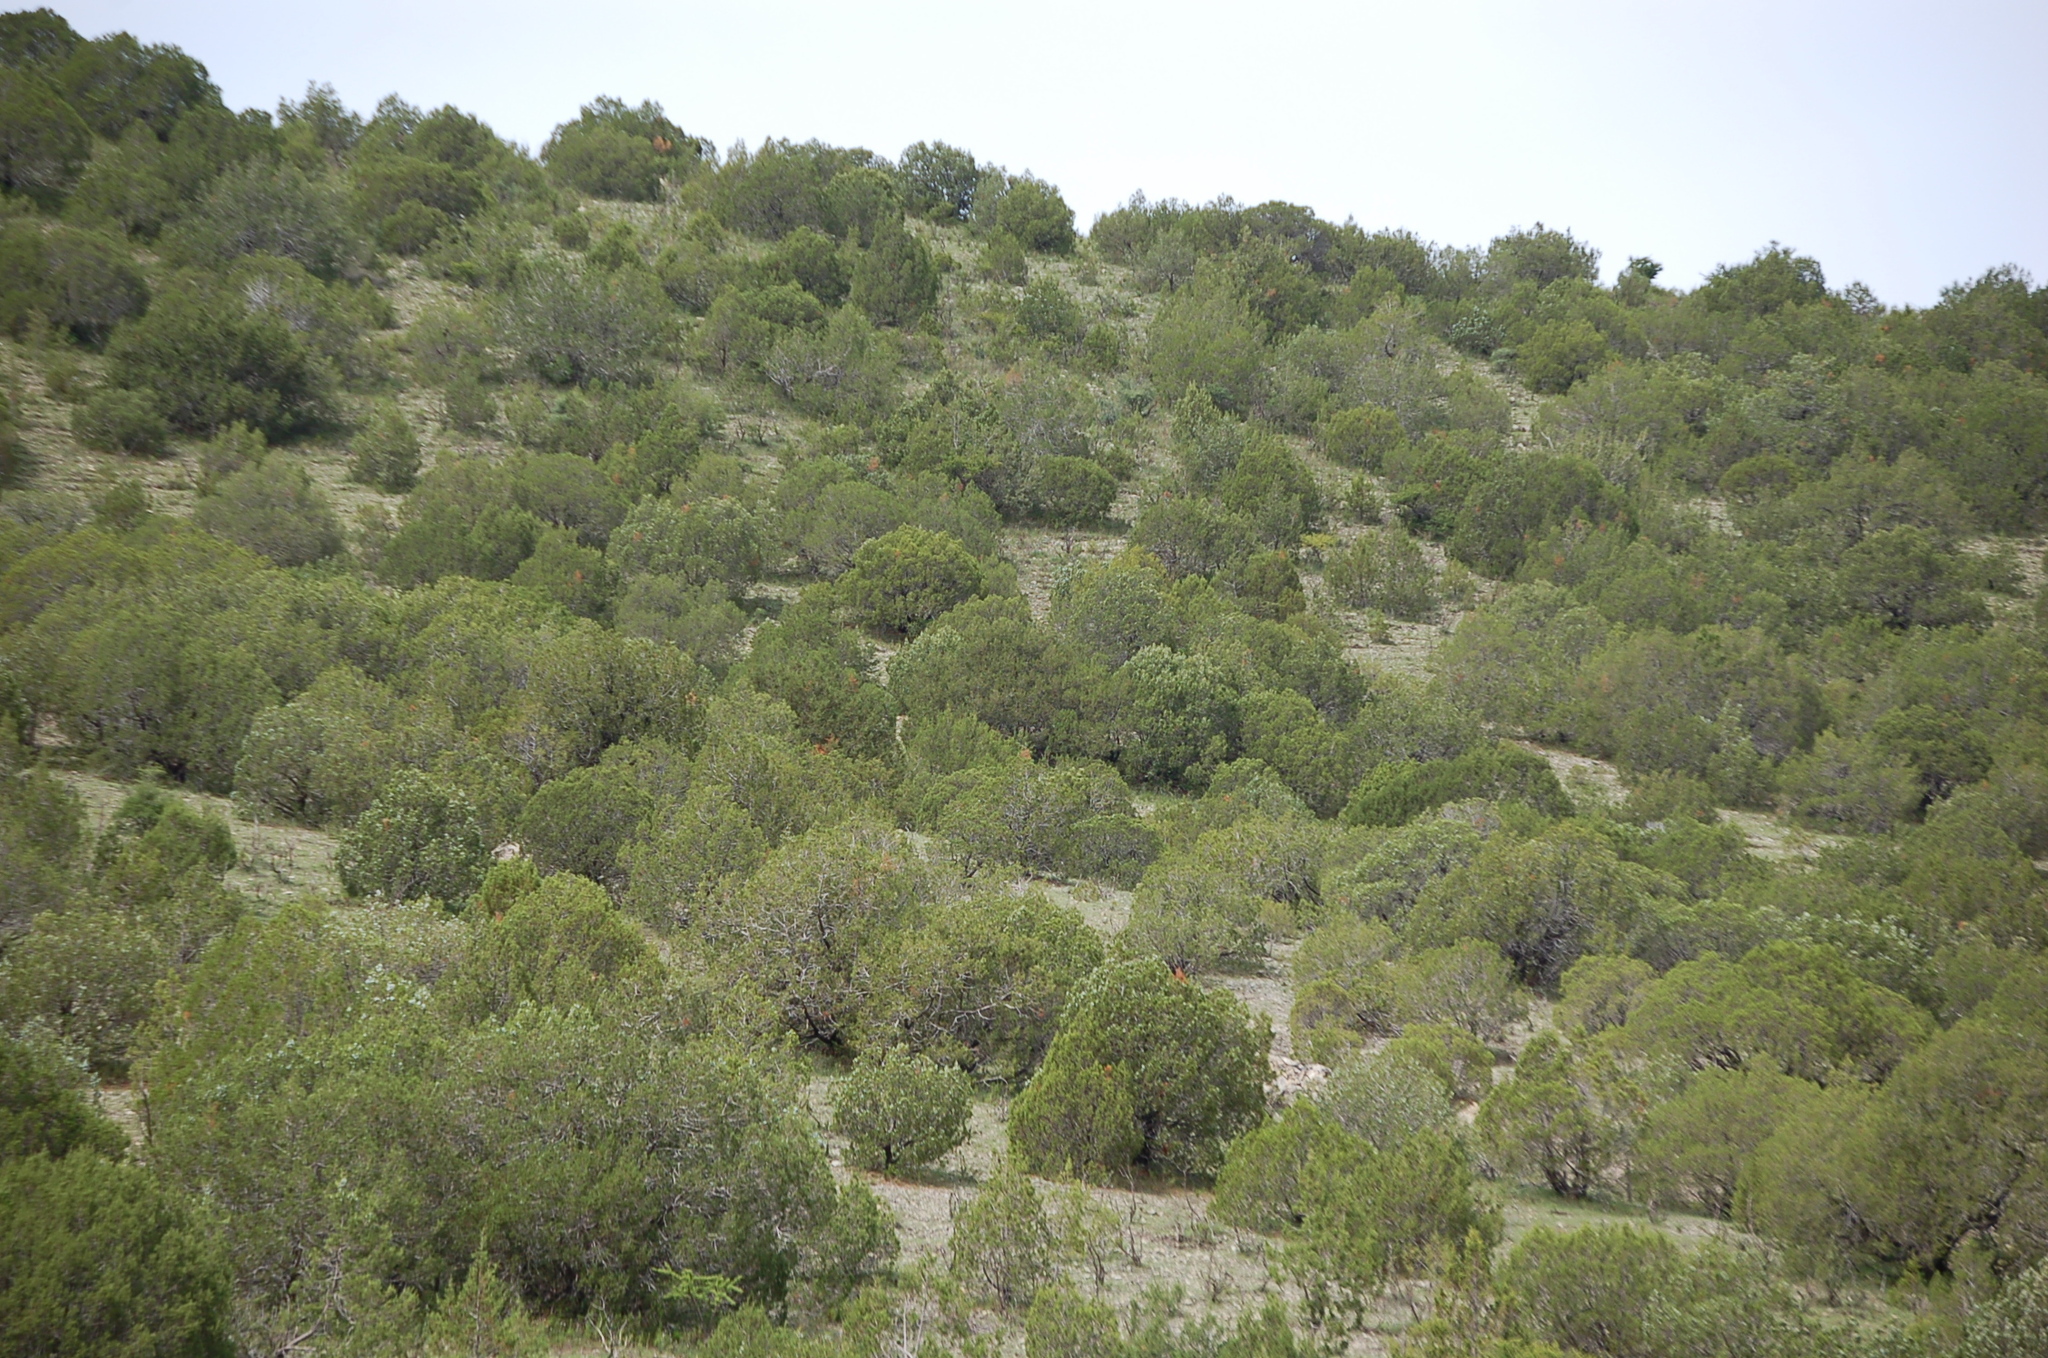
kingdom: Plantae
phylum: Tracheophyta
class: Pinopsida
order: Pinales
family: Cupressaceae
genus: Juniperus
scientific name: Juniperus deppeana
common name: Alligator juniper
